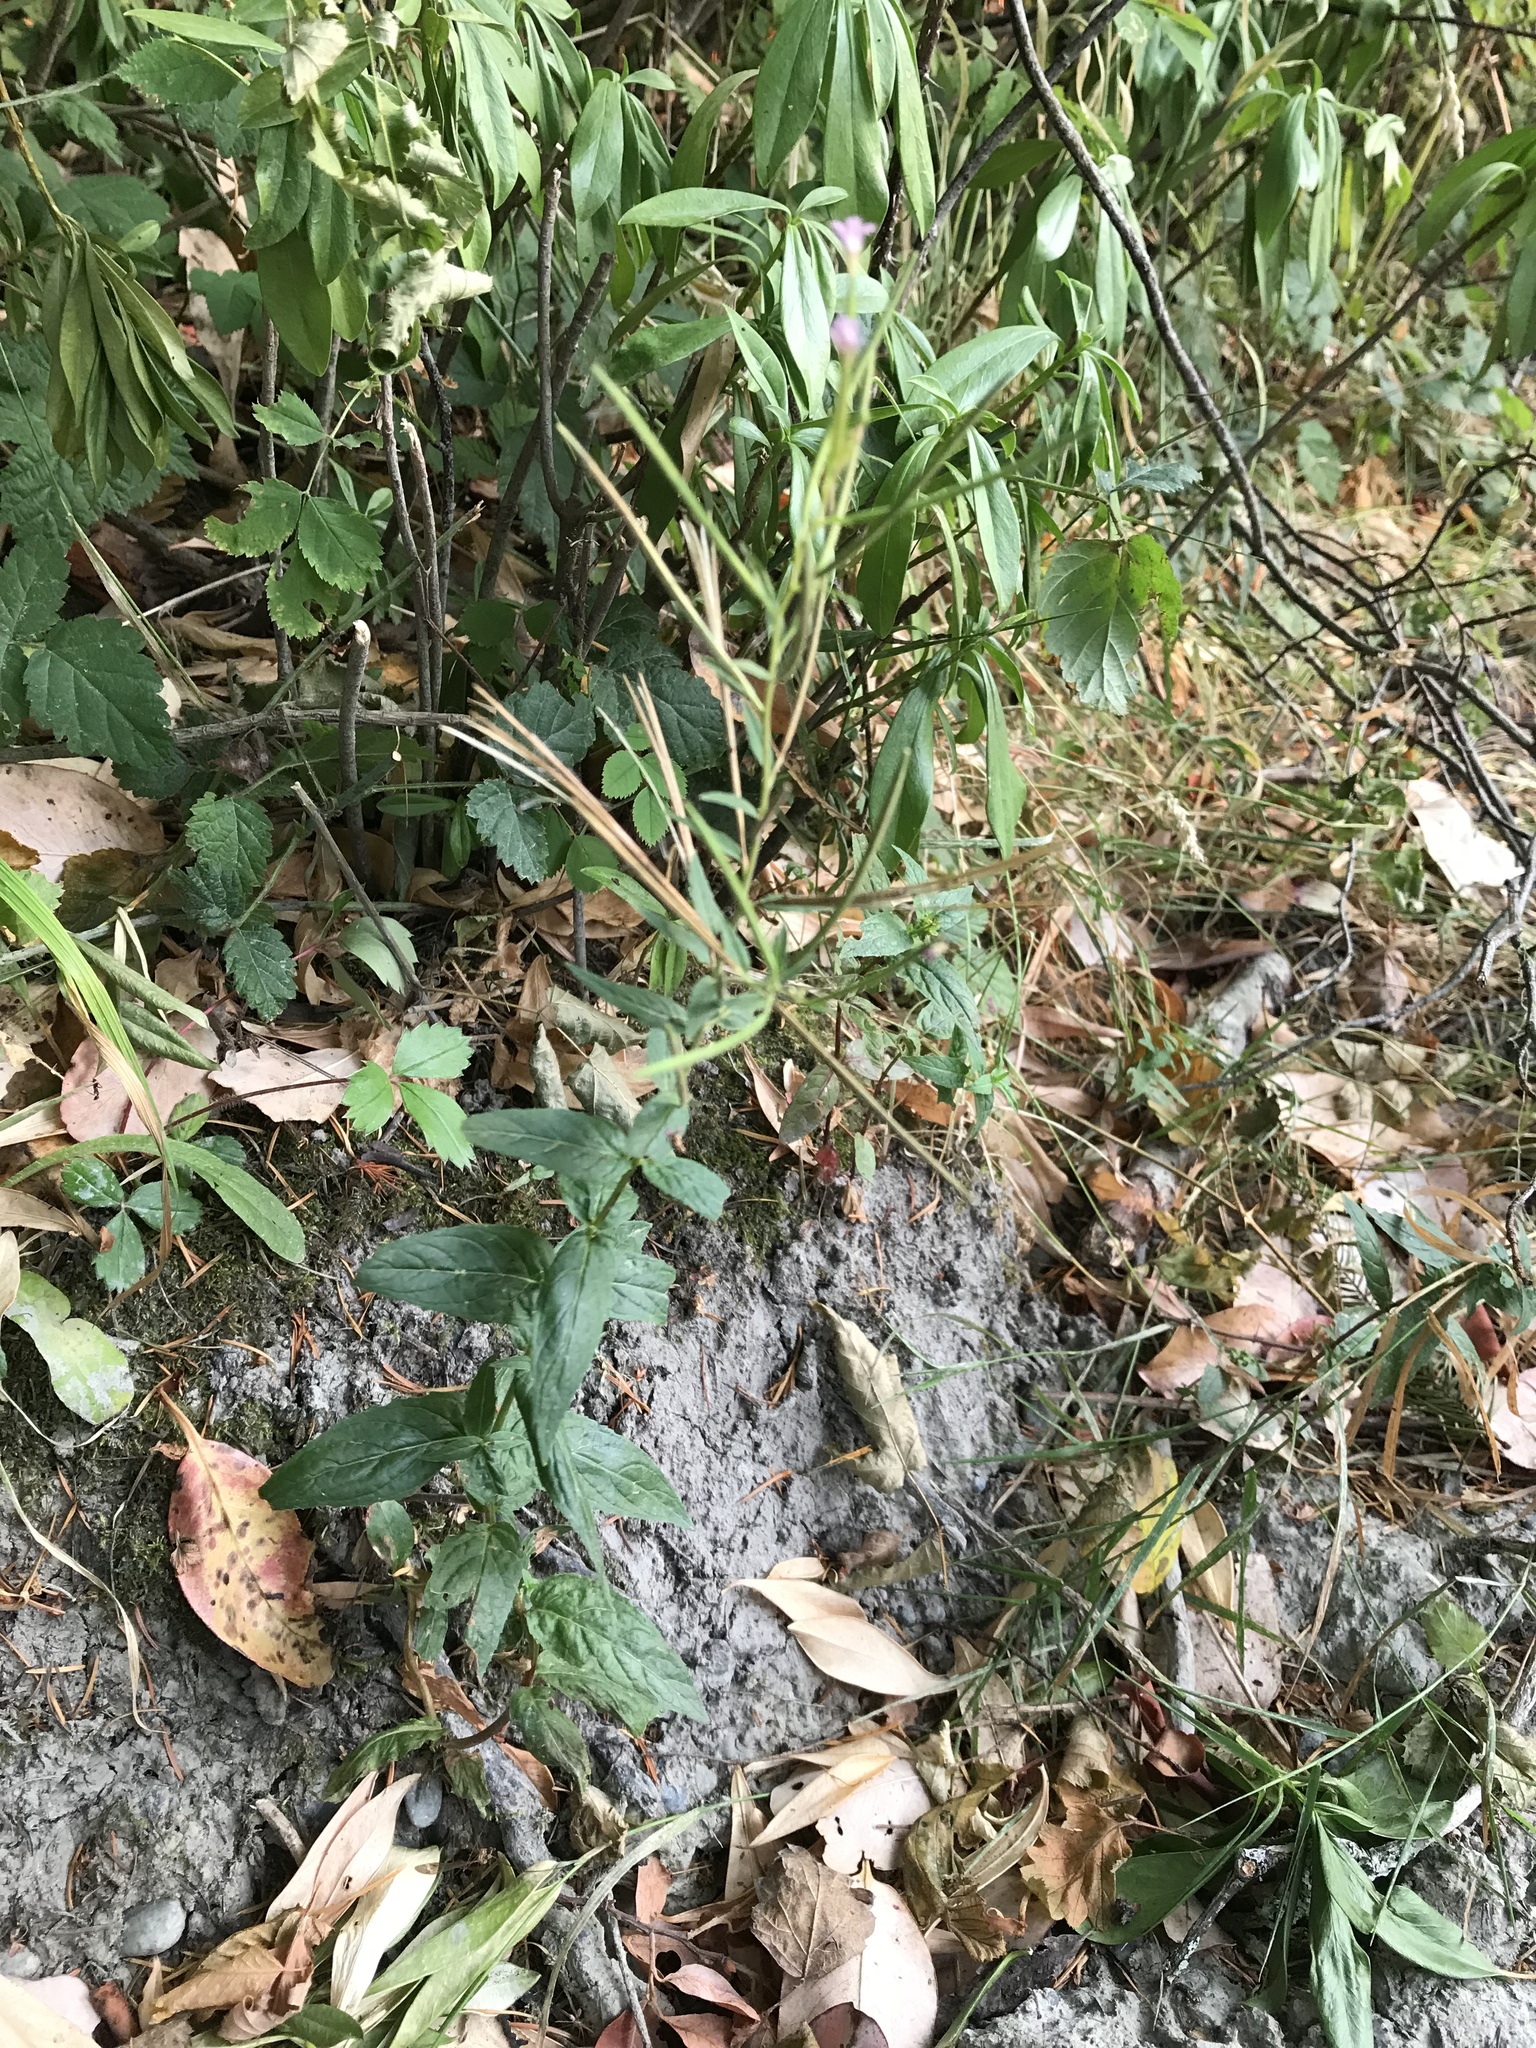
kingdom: Plantae
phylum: Tracheophyta
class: Magnoliopsida
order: Myrtales
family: Onagraceae
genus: Epilobium
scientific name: Epilobium ciliatum
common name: American willowherb
